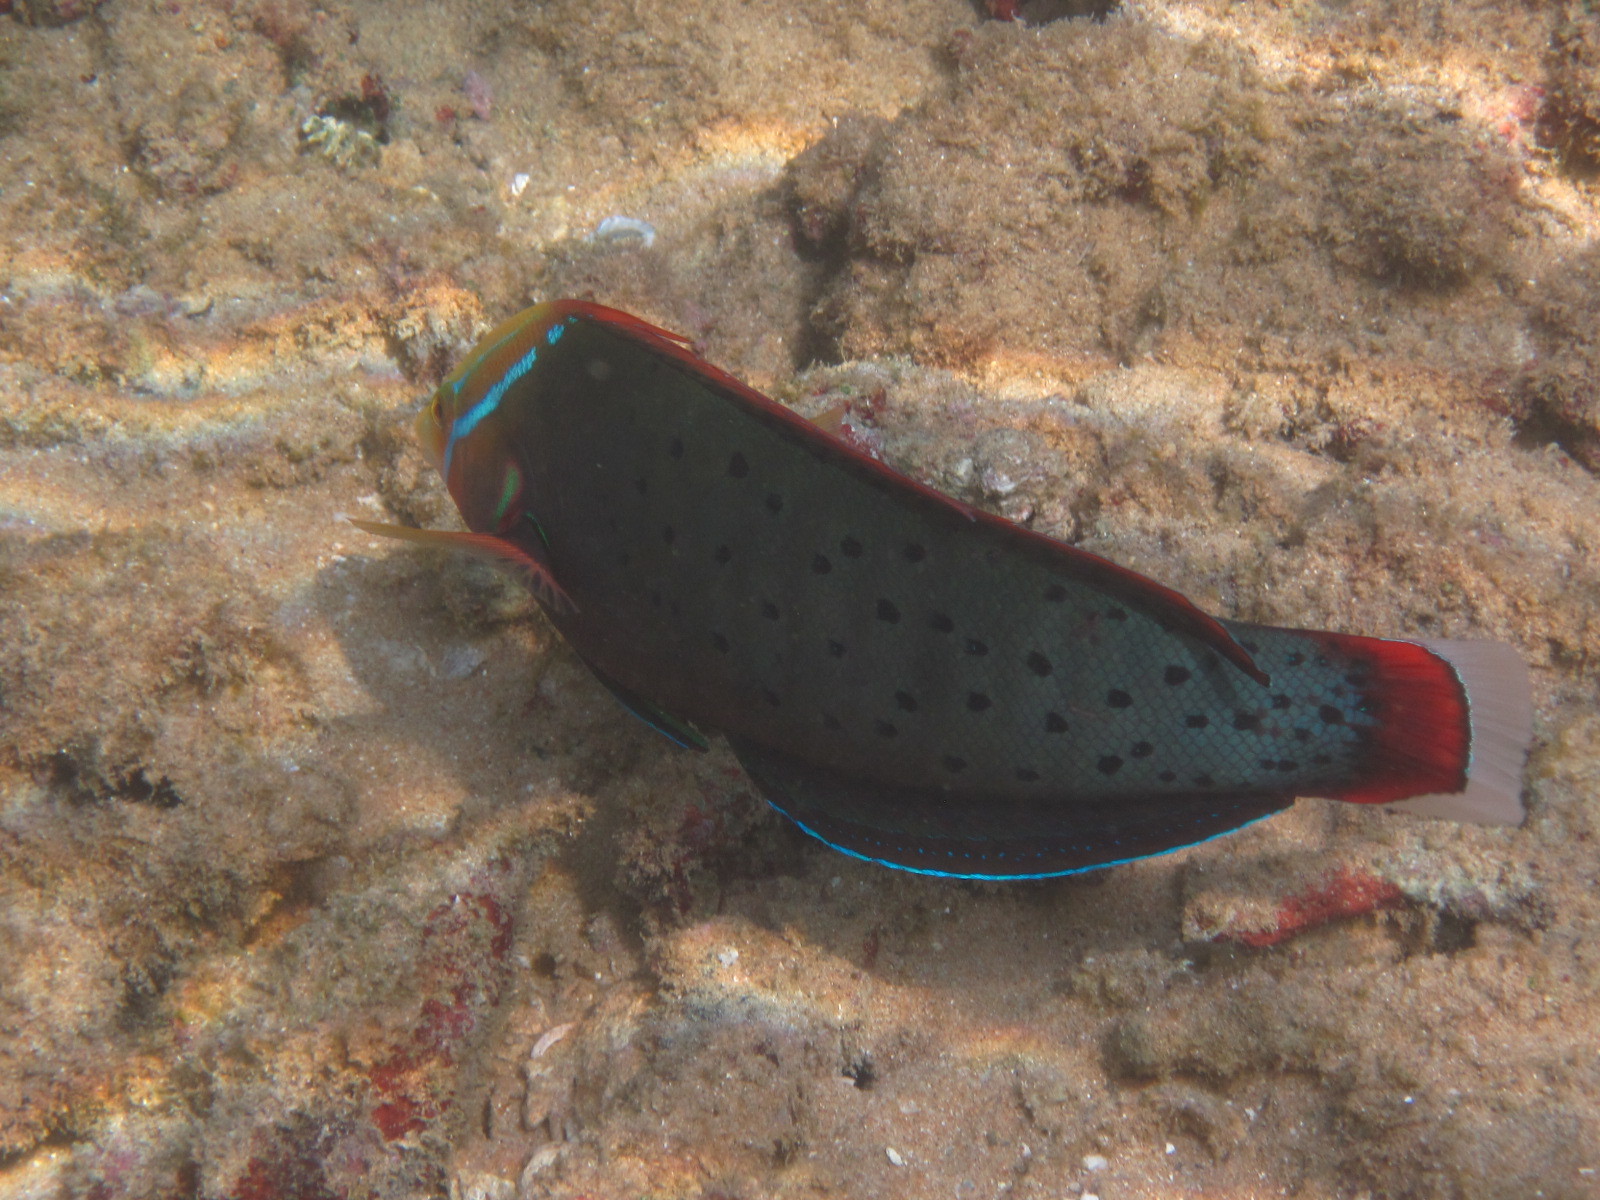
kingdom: Animalia
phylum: Chordata
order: Perciformes
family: Labridae
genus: Coris
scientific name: Coris formosa
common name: Queen coris
